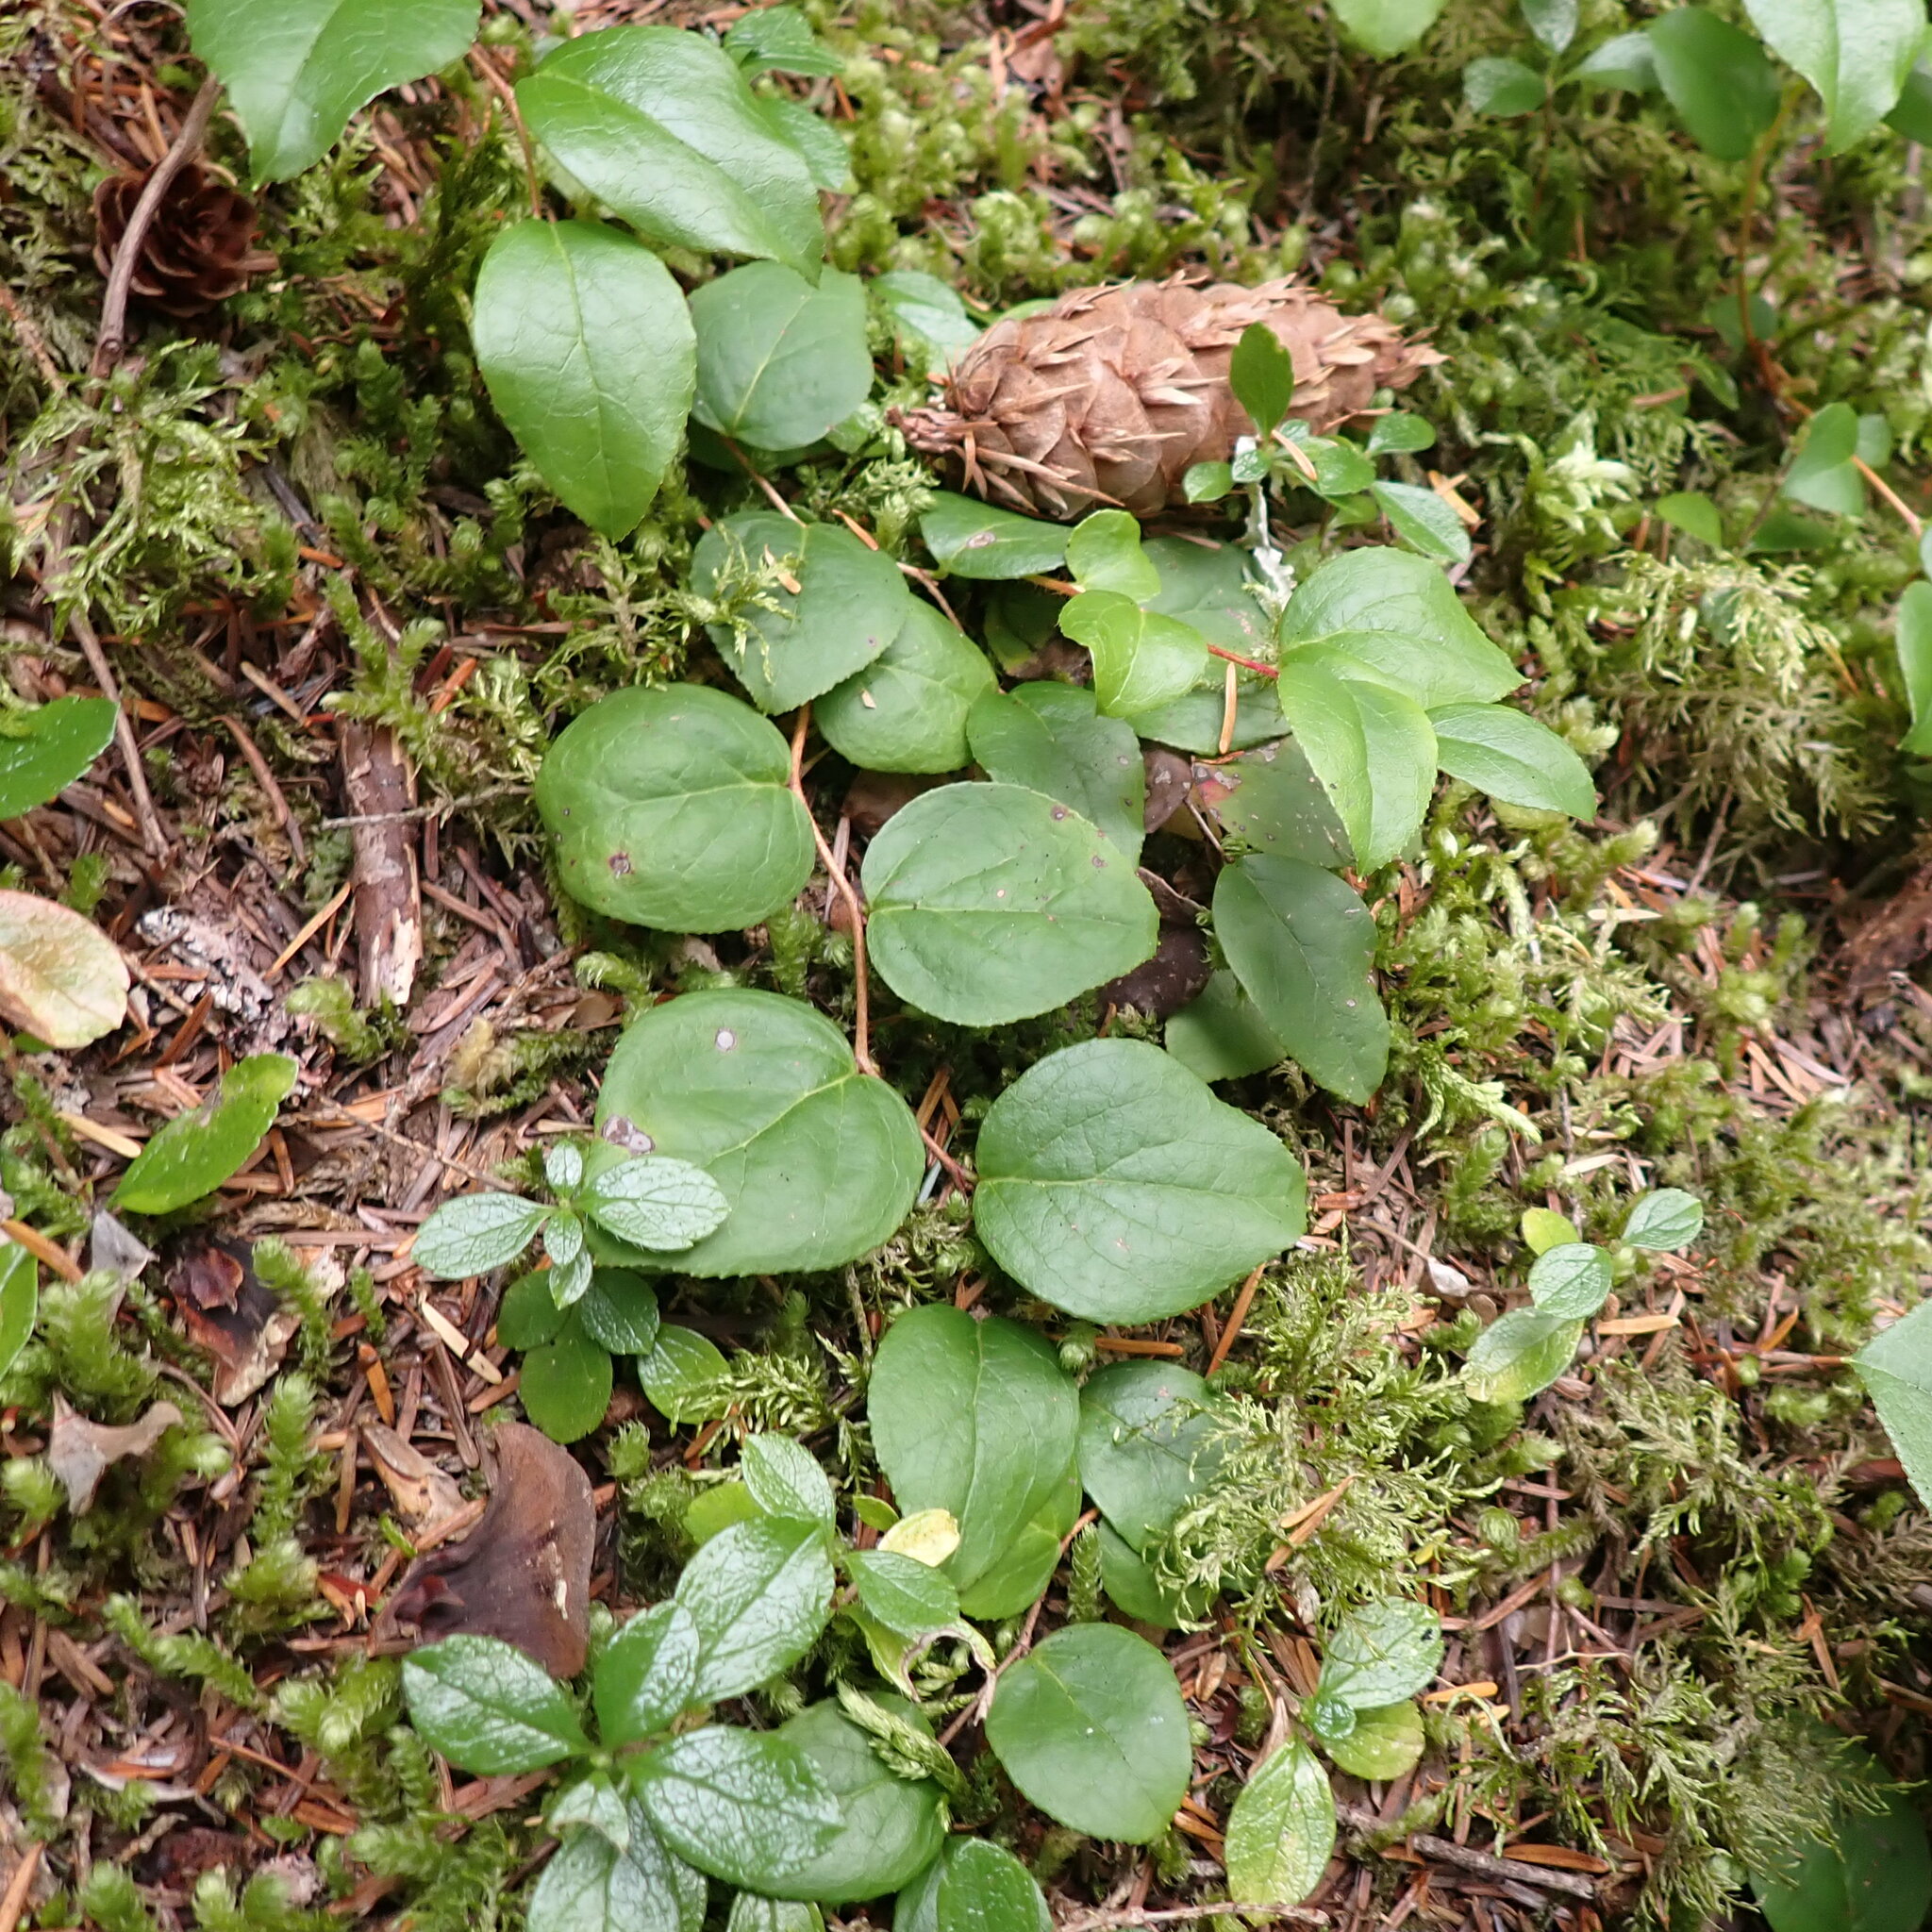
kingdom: Plantae
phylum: Tracheophyta
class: Magnoliopsida
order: Ericales
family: Ericaceae
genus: Gaultheria
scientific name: Gaultheria ovatifolia
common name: Oregon wintergreen
